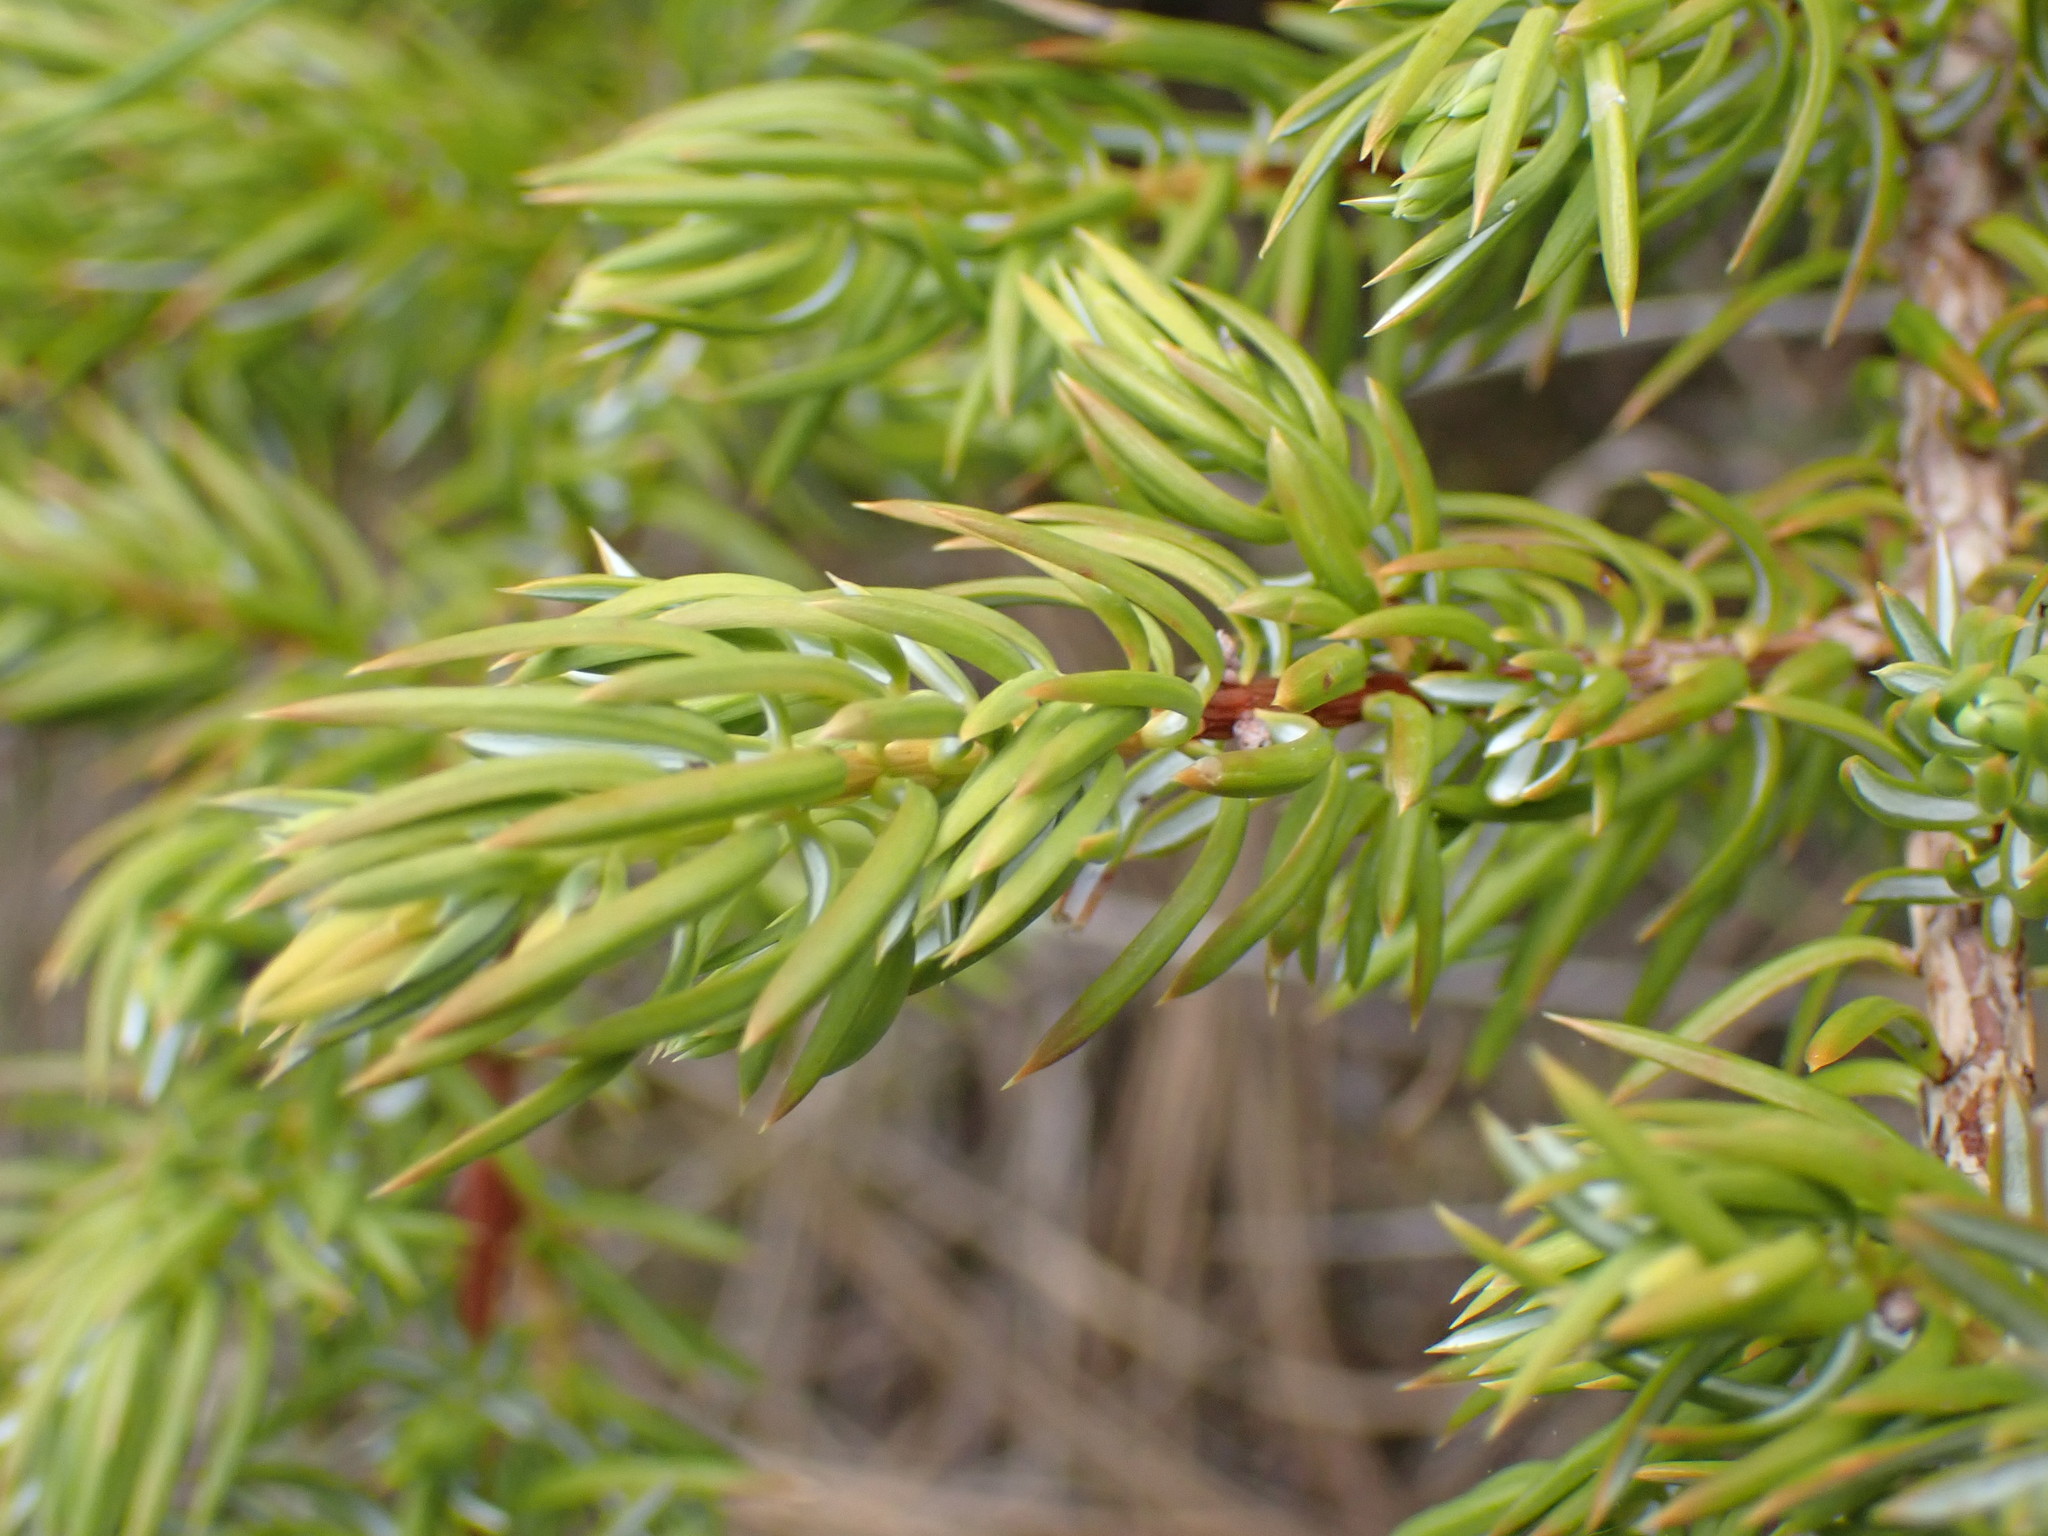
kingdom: Plantae
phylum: Tracheophyta
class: Pinopsida
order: Pinales
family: Cupressaceae
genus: Juniperus
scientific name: Juniperus communis
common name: Common juniper
